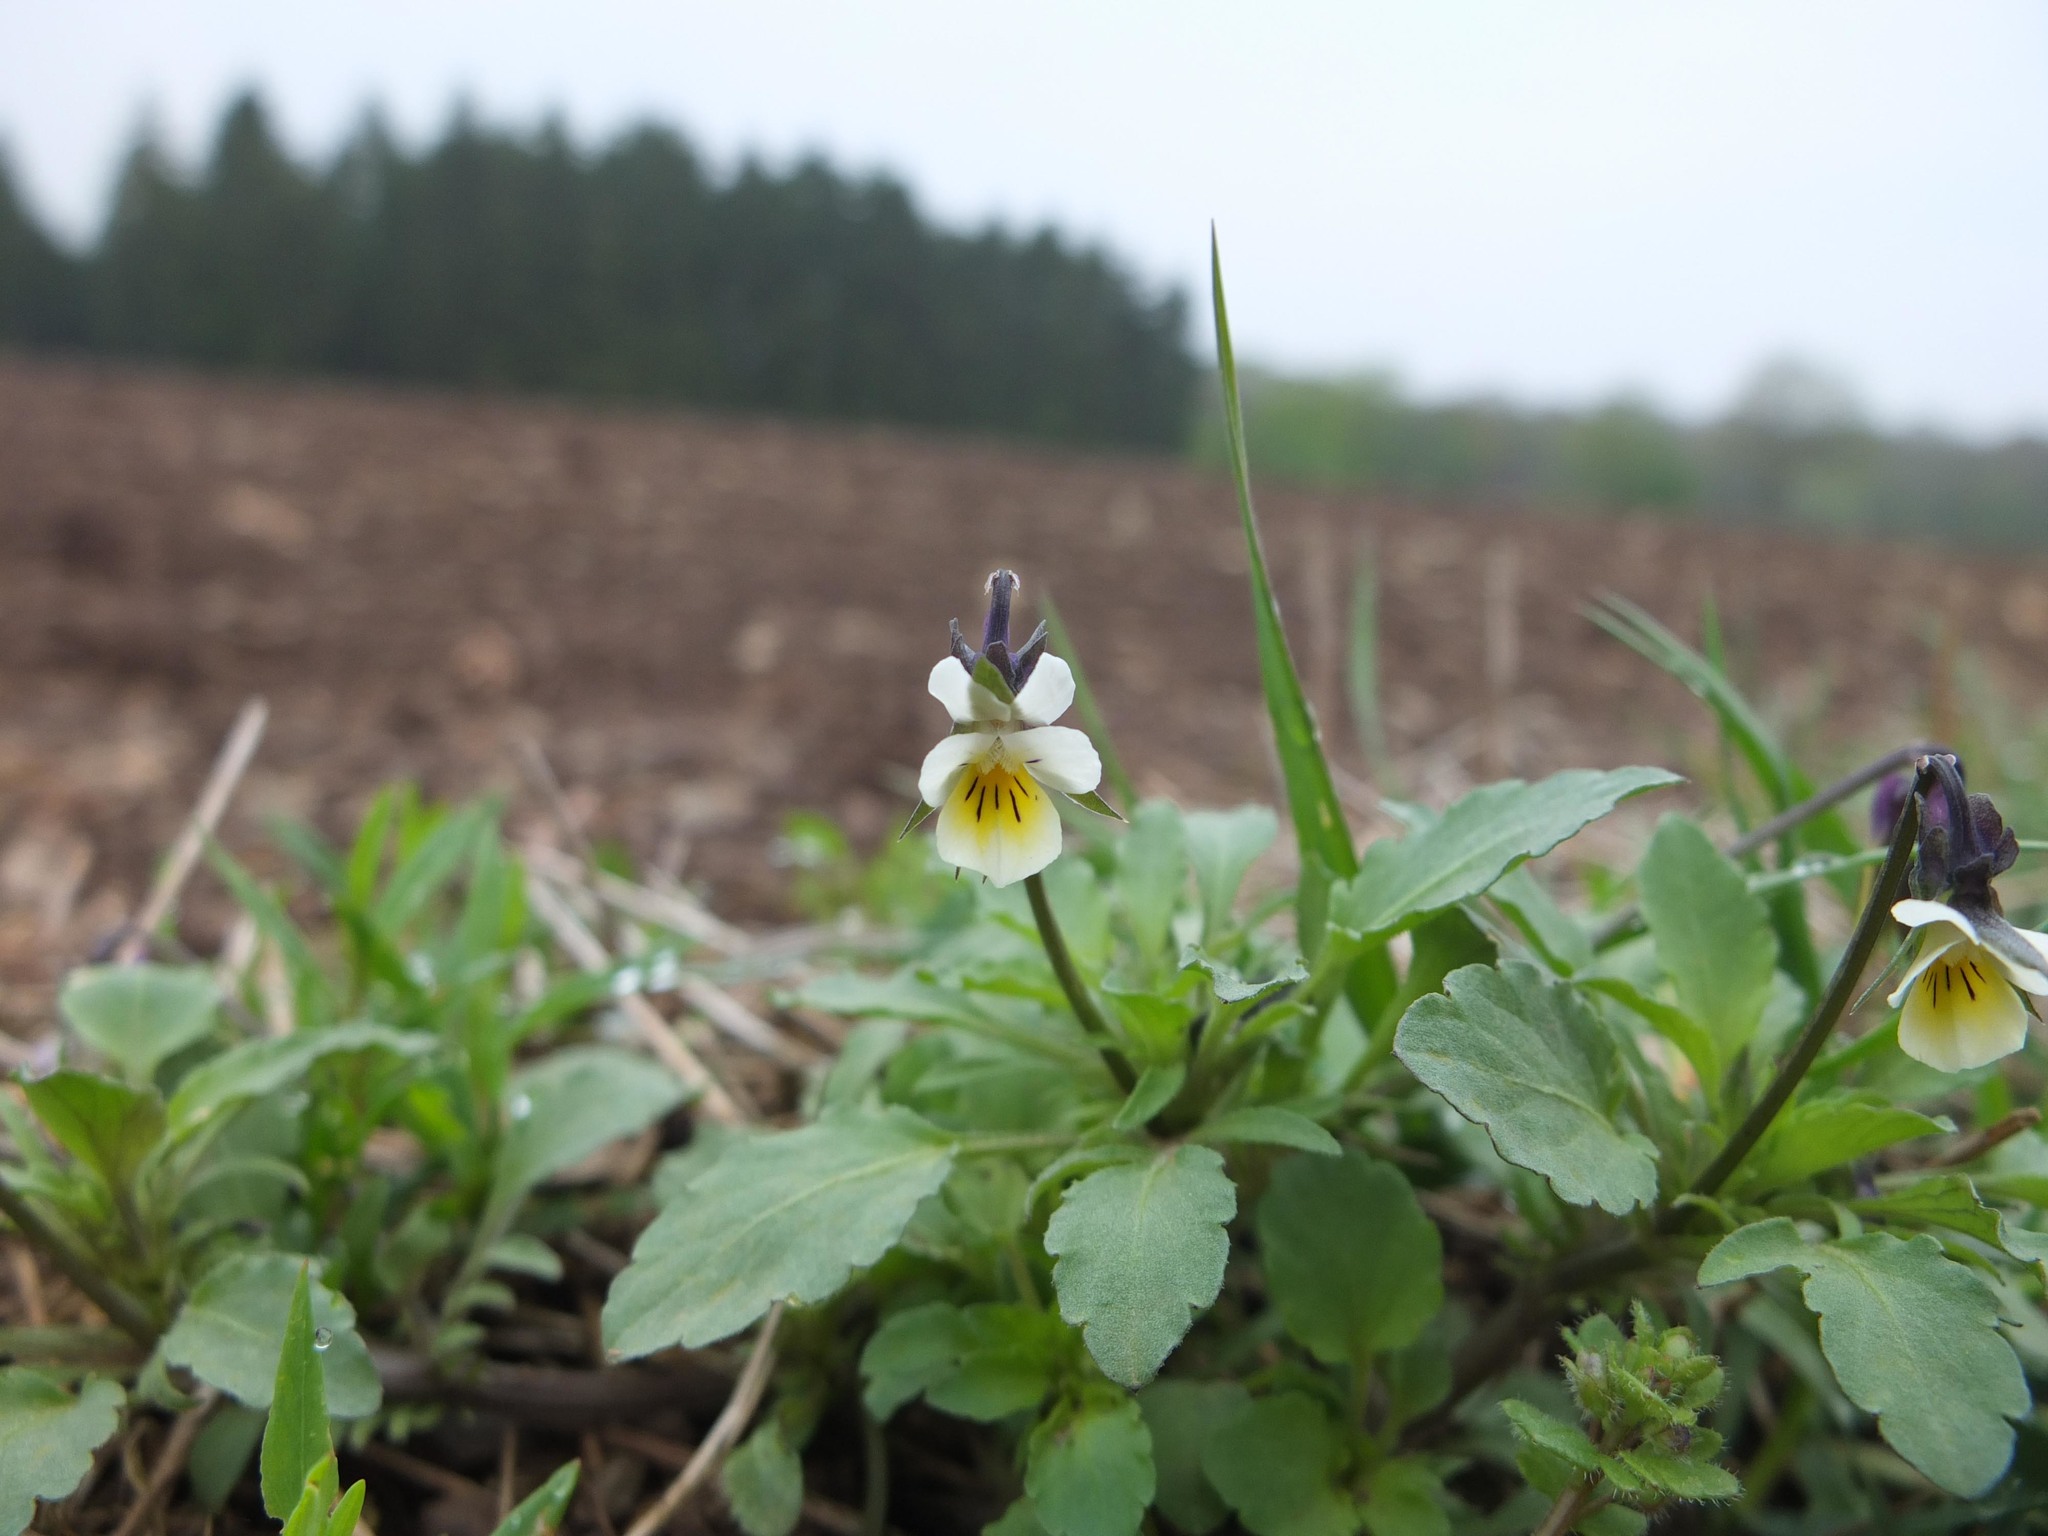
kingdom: Plantae
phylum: Tracheophyta
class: Magnoliopsida
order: Malpighiales
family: Violaceae
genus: Viola
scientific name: Viola arvensis
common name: Field pansy
